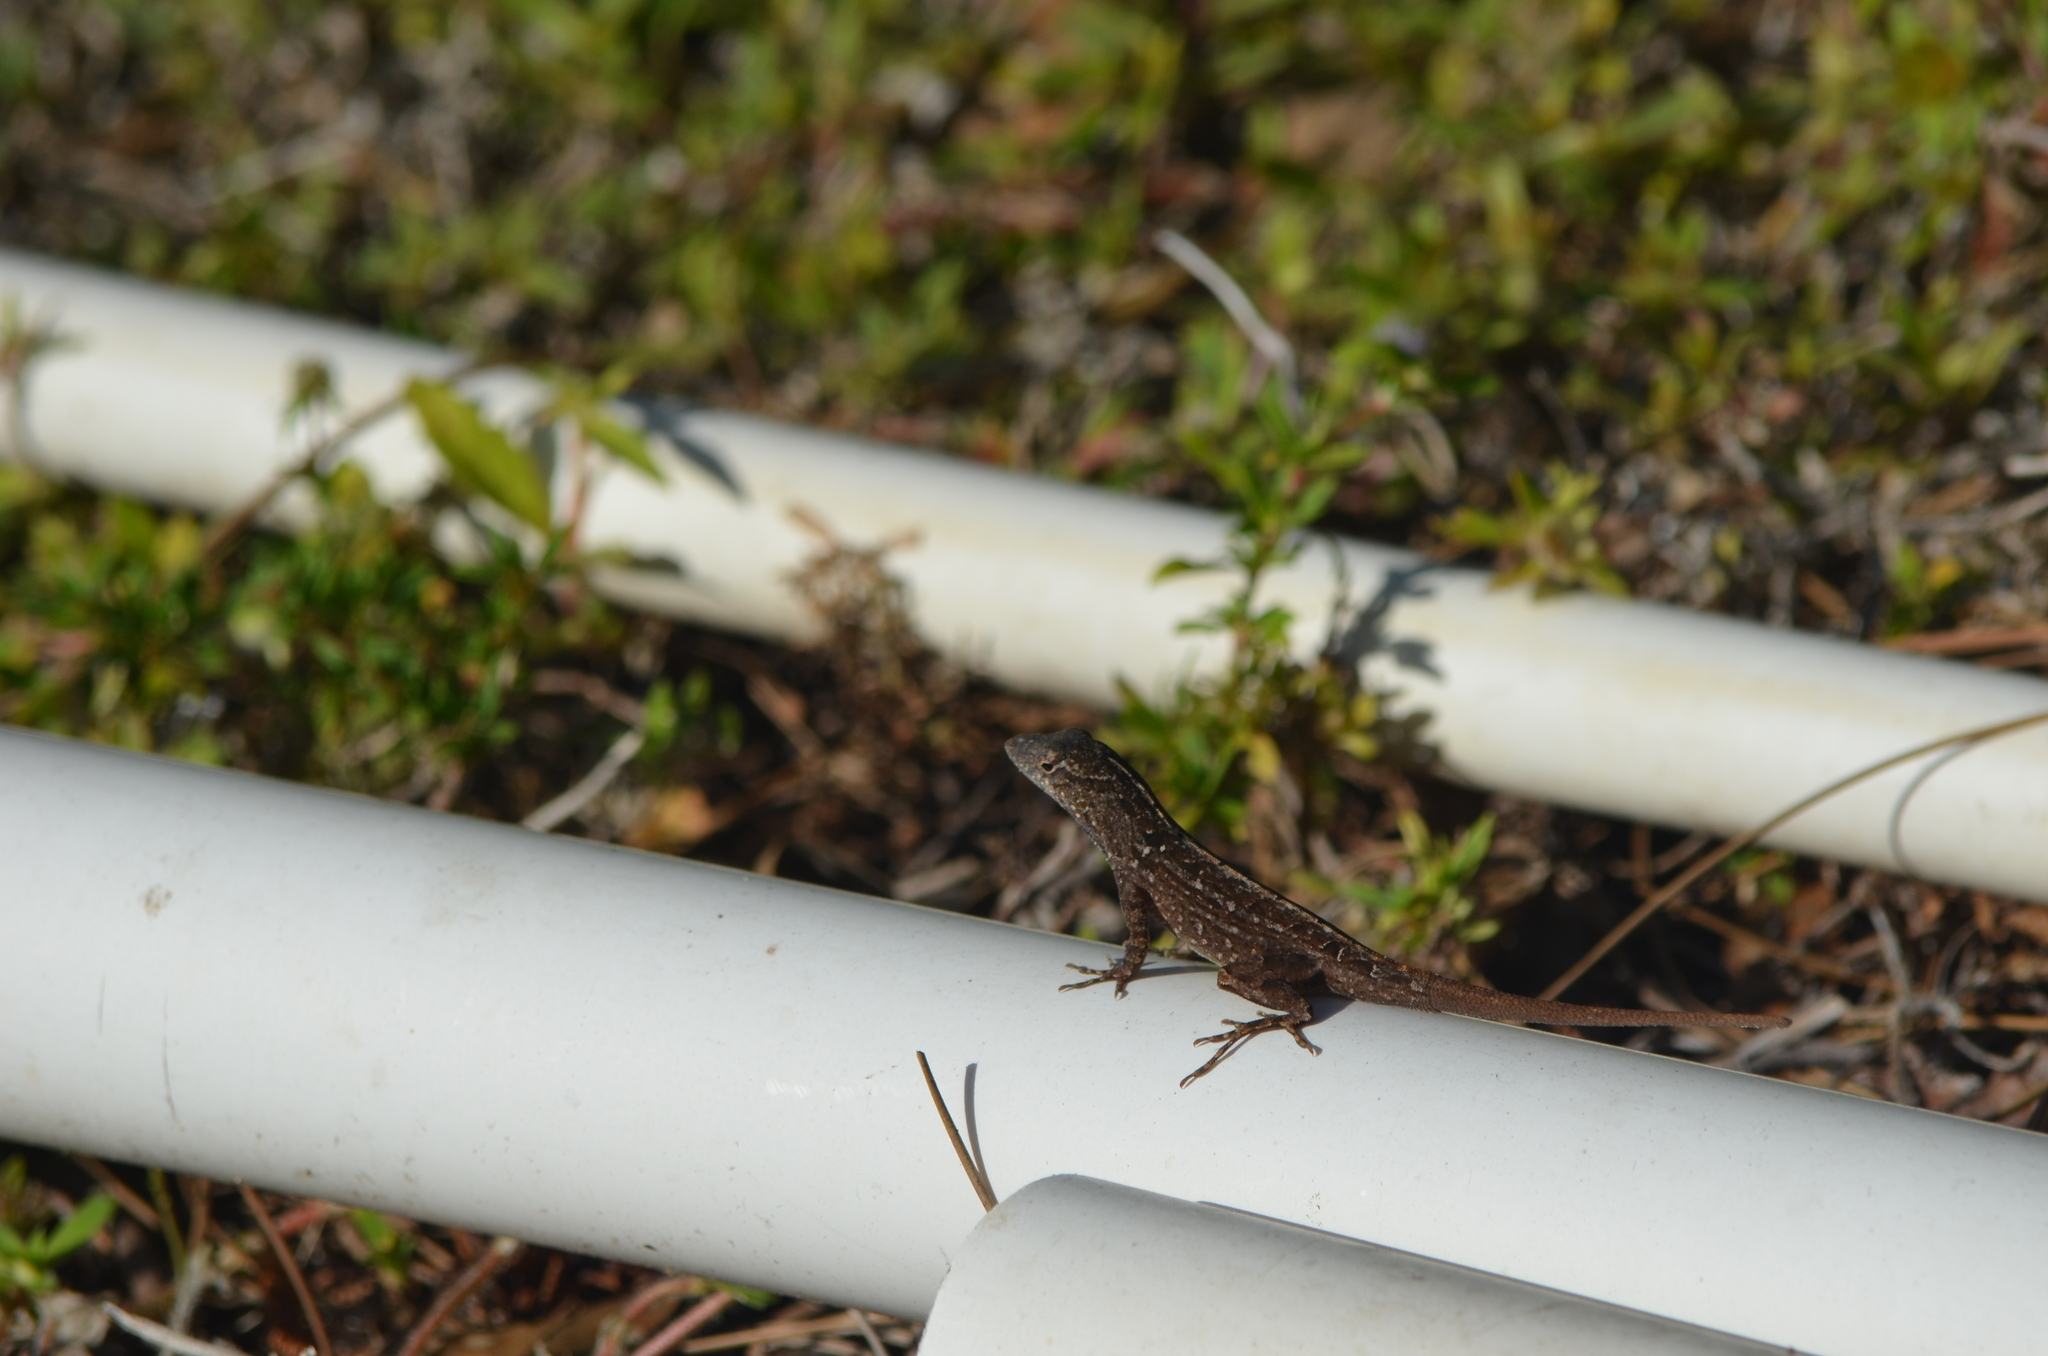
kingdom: Animalia
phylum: Chordata
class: Squamata
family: Dactyloidae
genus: Anolis
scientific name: Anolis sagrei
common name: Brown anole
